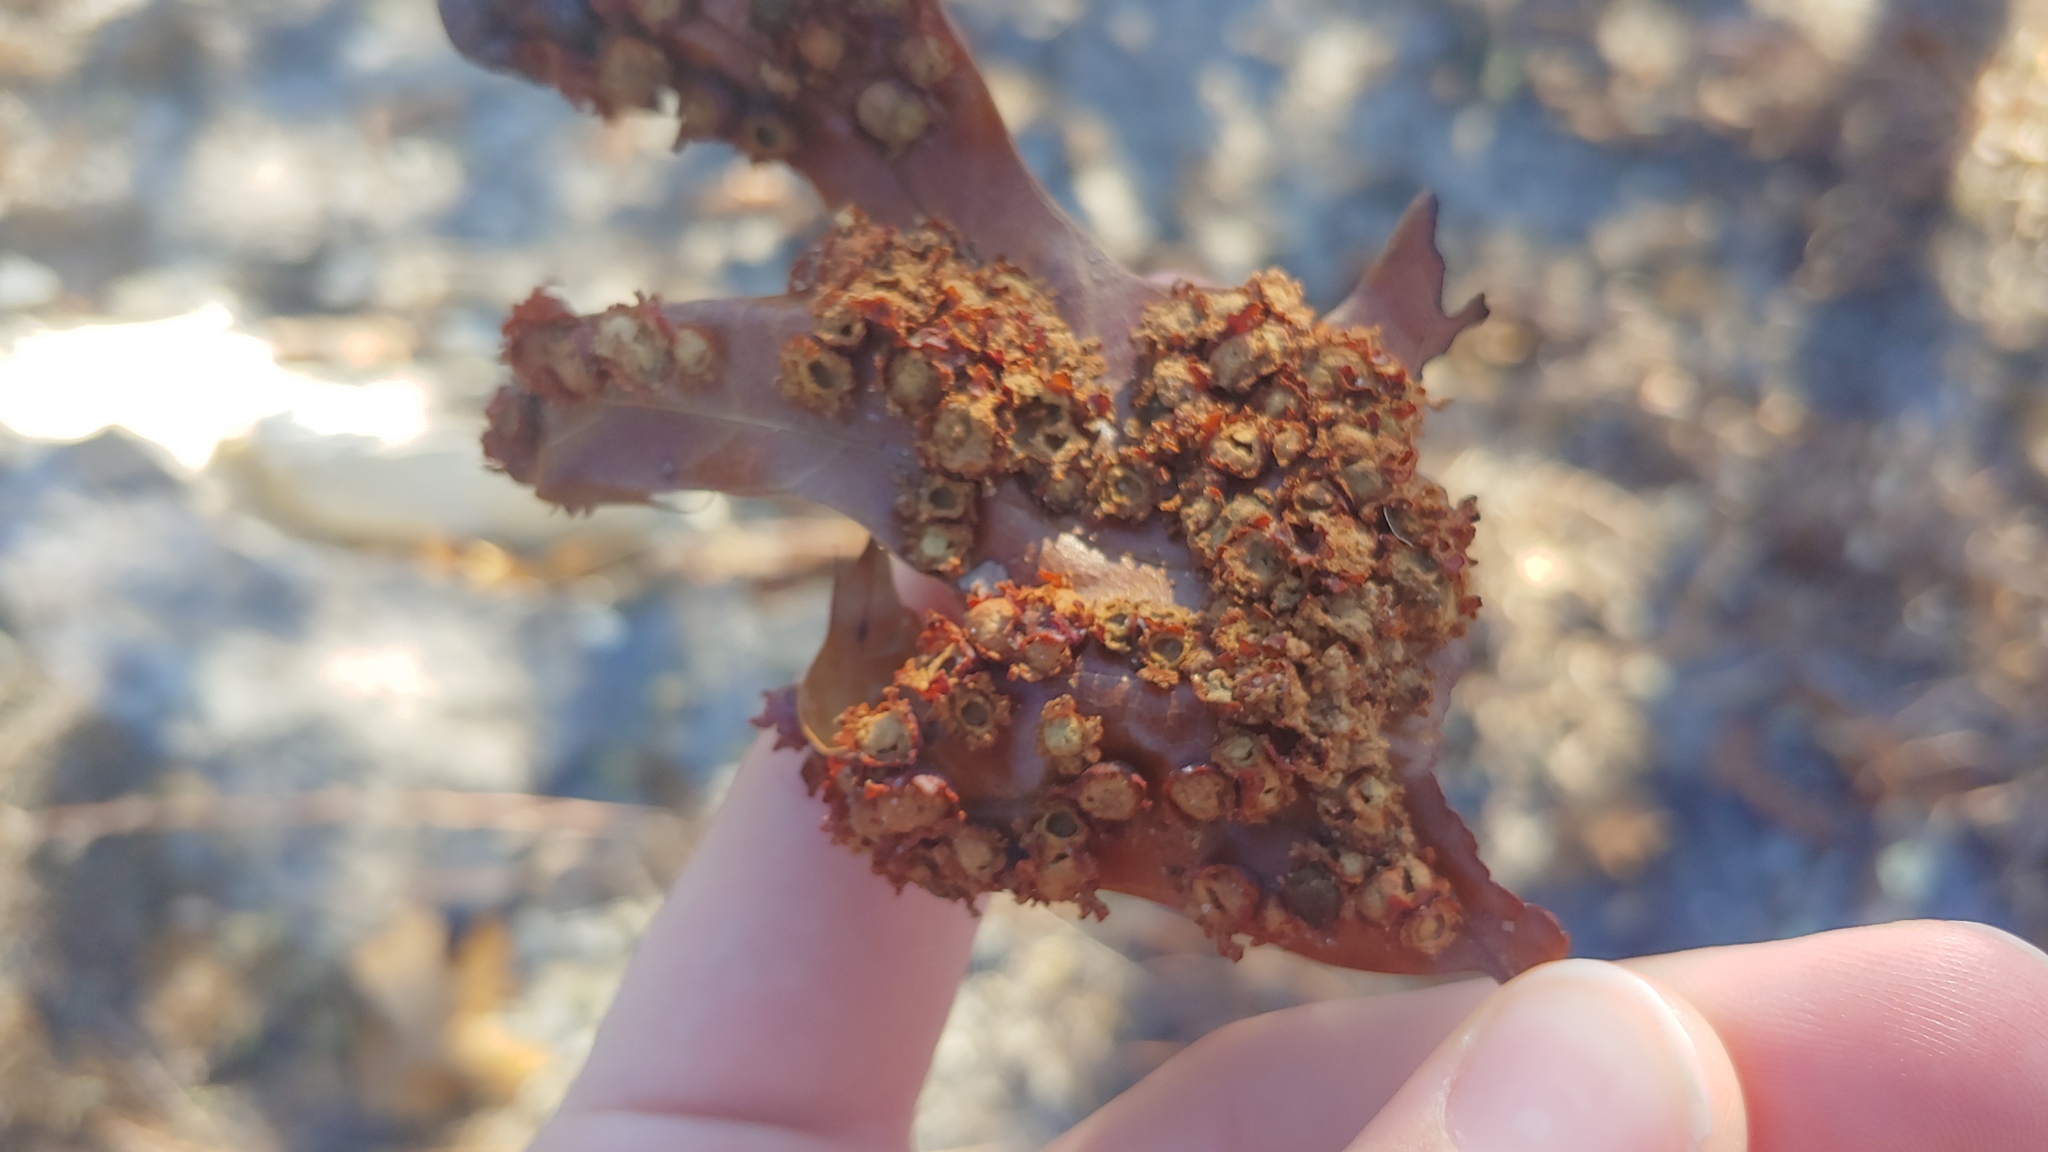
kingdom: Animalia
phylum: Arthropoda
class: Insecta
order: Diptera
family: Cecidomyiidae
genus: Polystepha
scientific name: Polystepha pilulae
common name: Oak leaf gall midge
